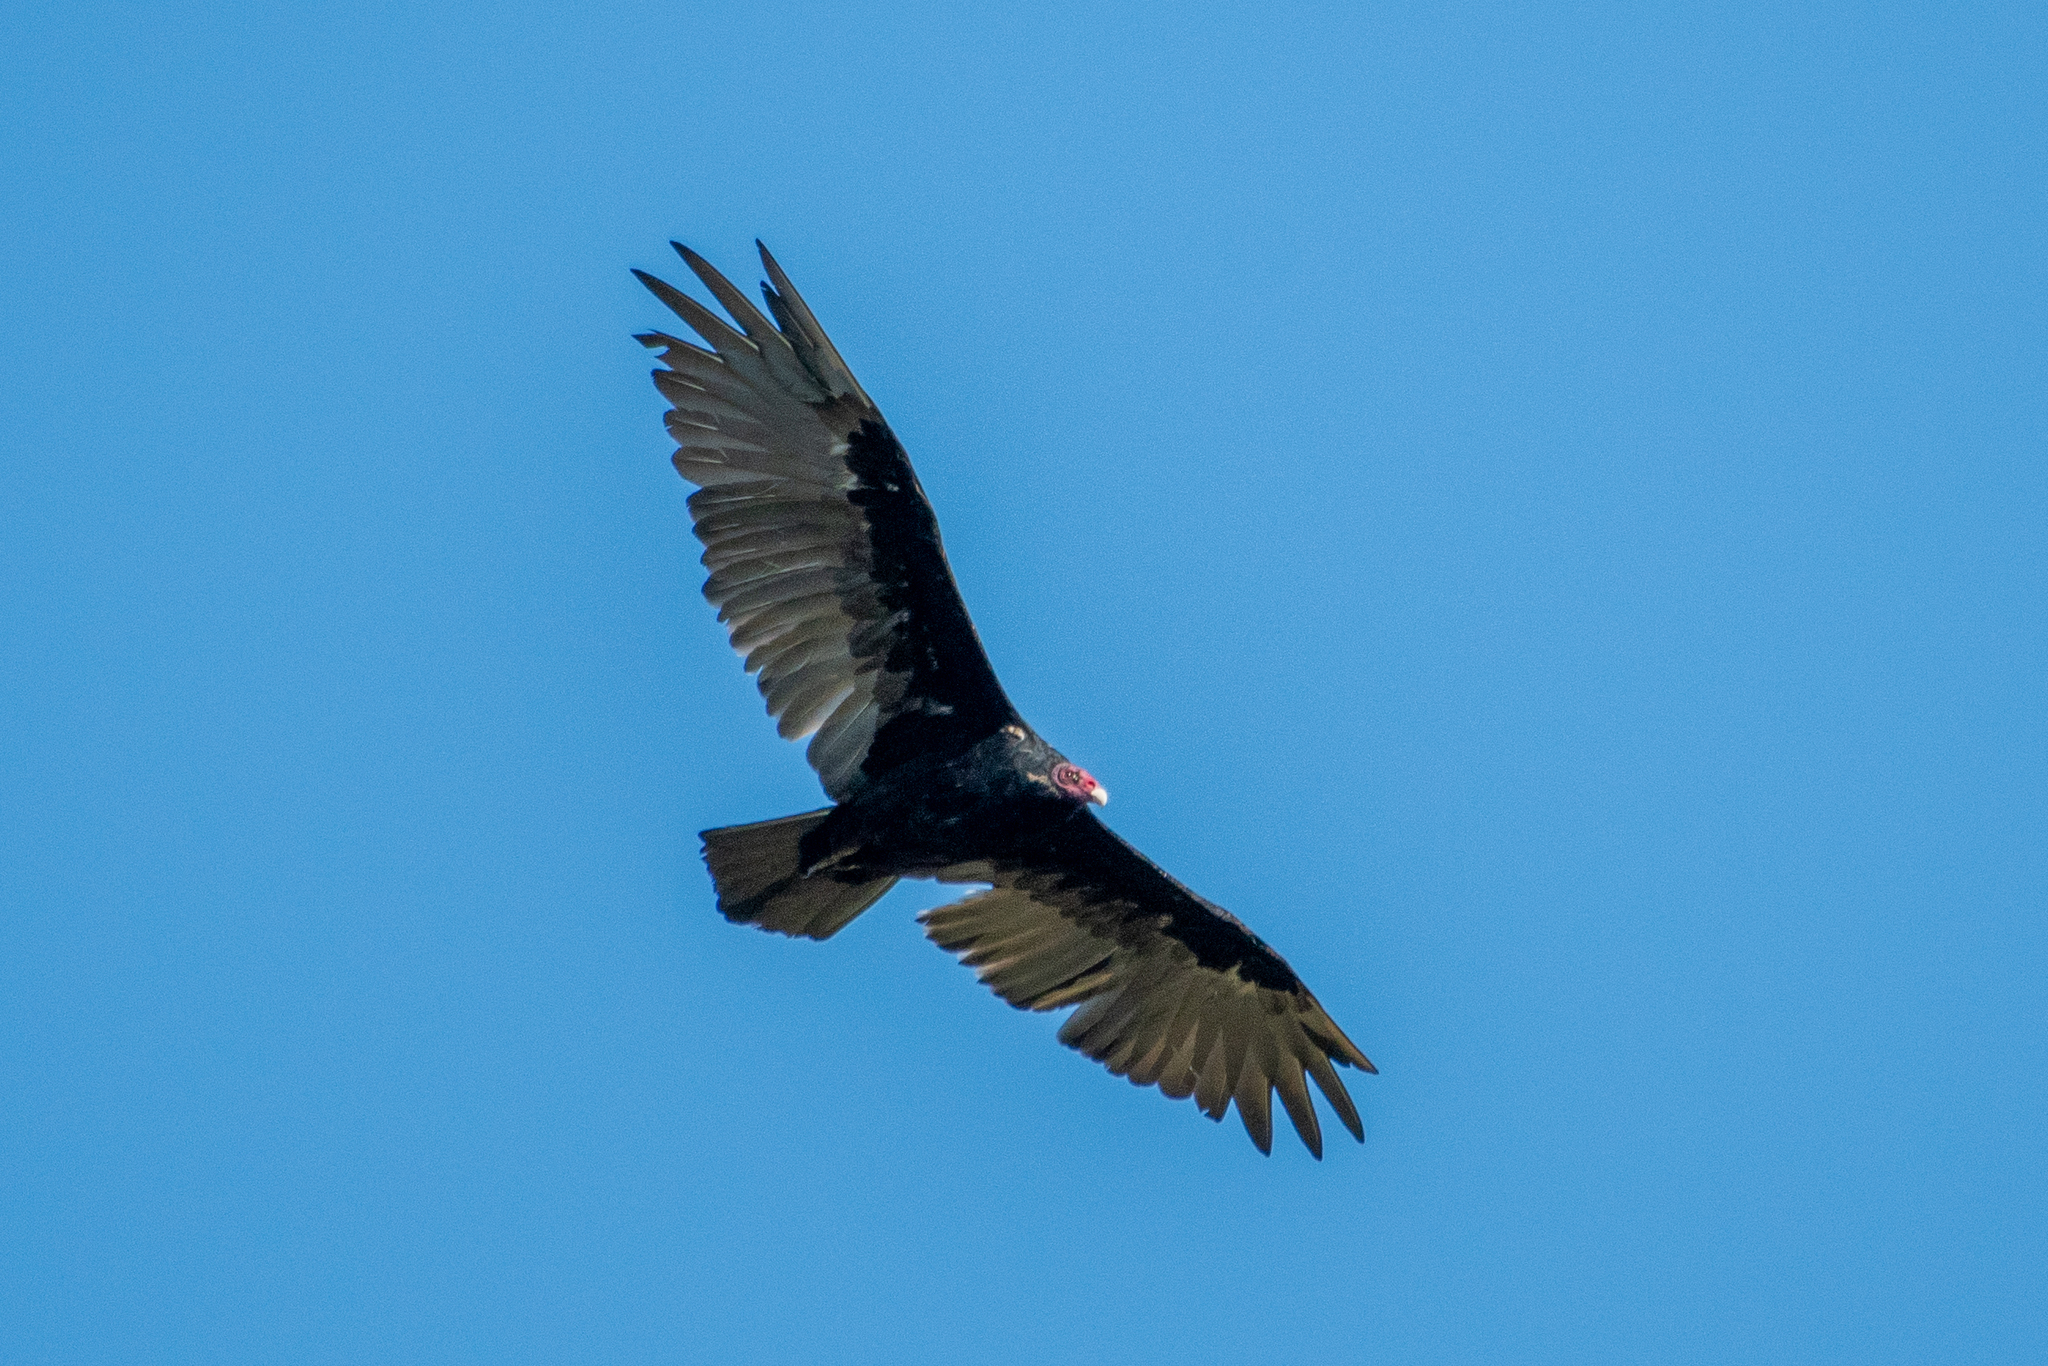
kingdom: Animalia
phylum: Chordata
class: Aves
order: Accipitriformes
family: Cathartidae
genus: Cathartes
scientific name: Cathartes aura
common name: Turkey vulture
